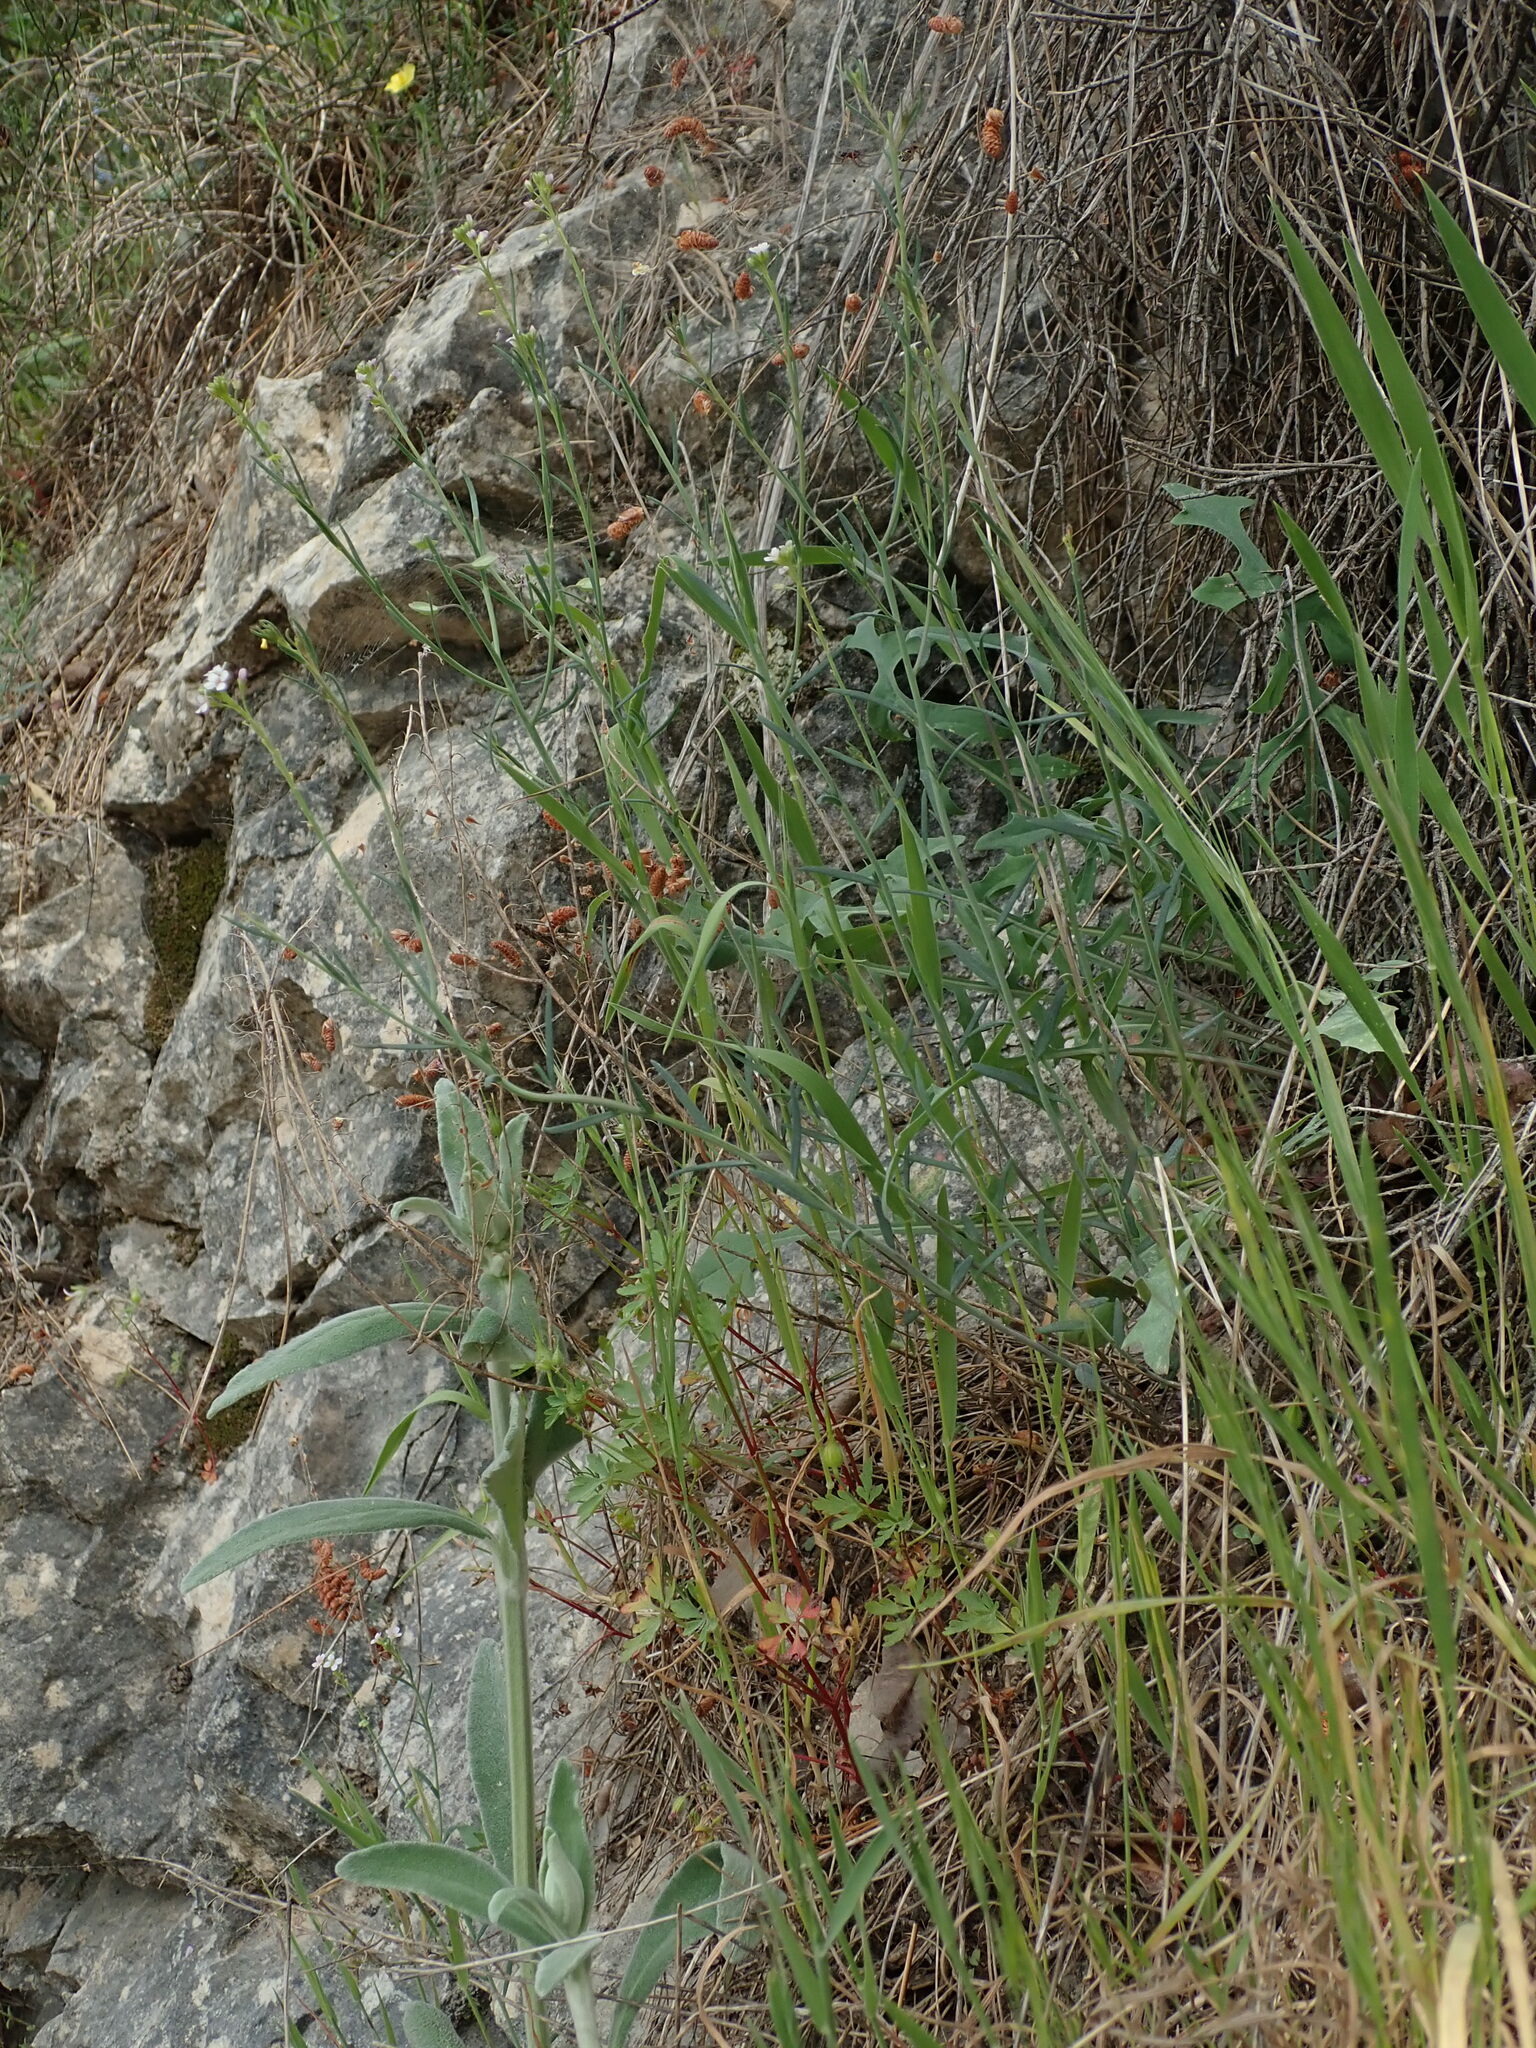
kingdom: Plantae
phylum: Tracheophyta
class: Magnoliopsida
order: Brassicales
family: Brassicaceae
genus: Aethionema
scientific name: Aethionema saxatile
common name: Burnt candytuft
